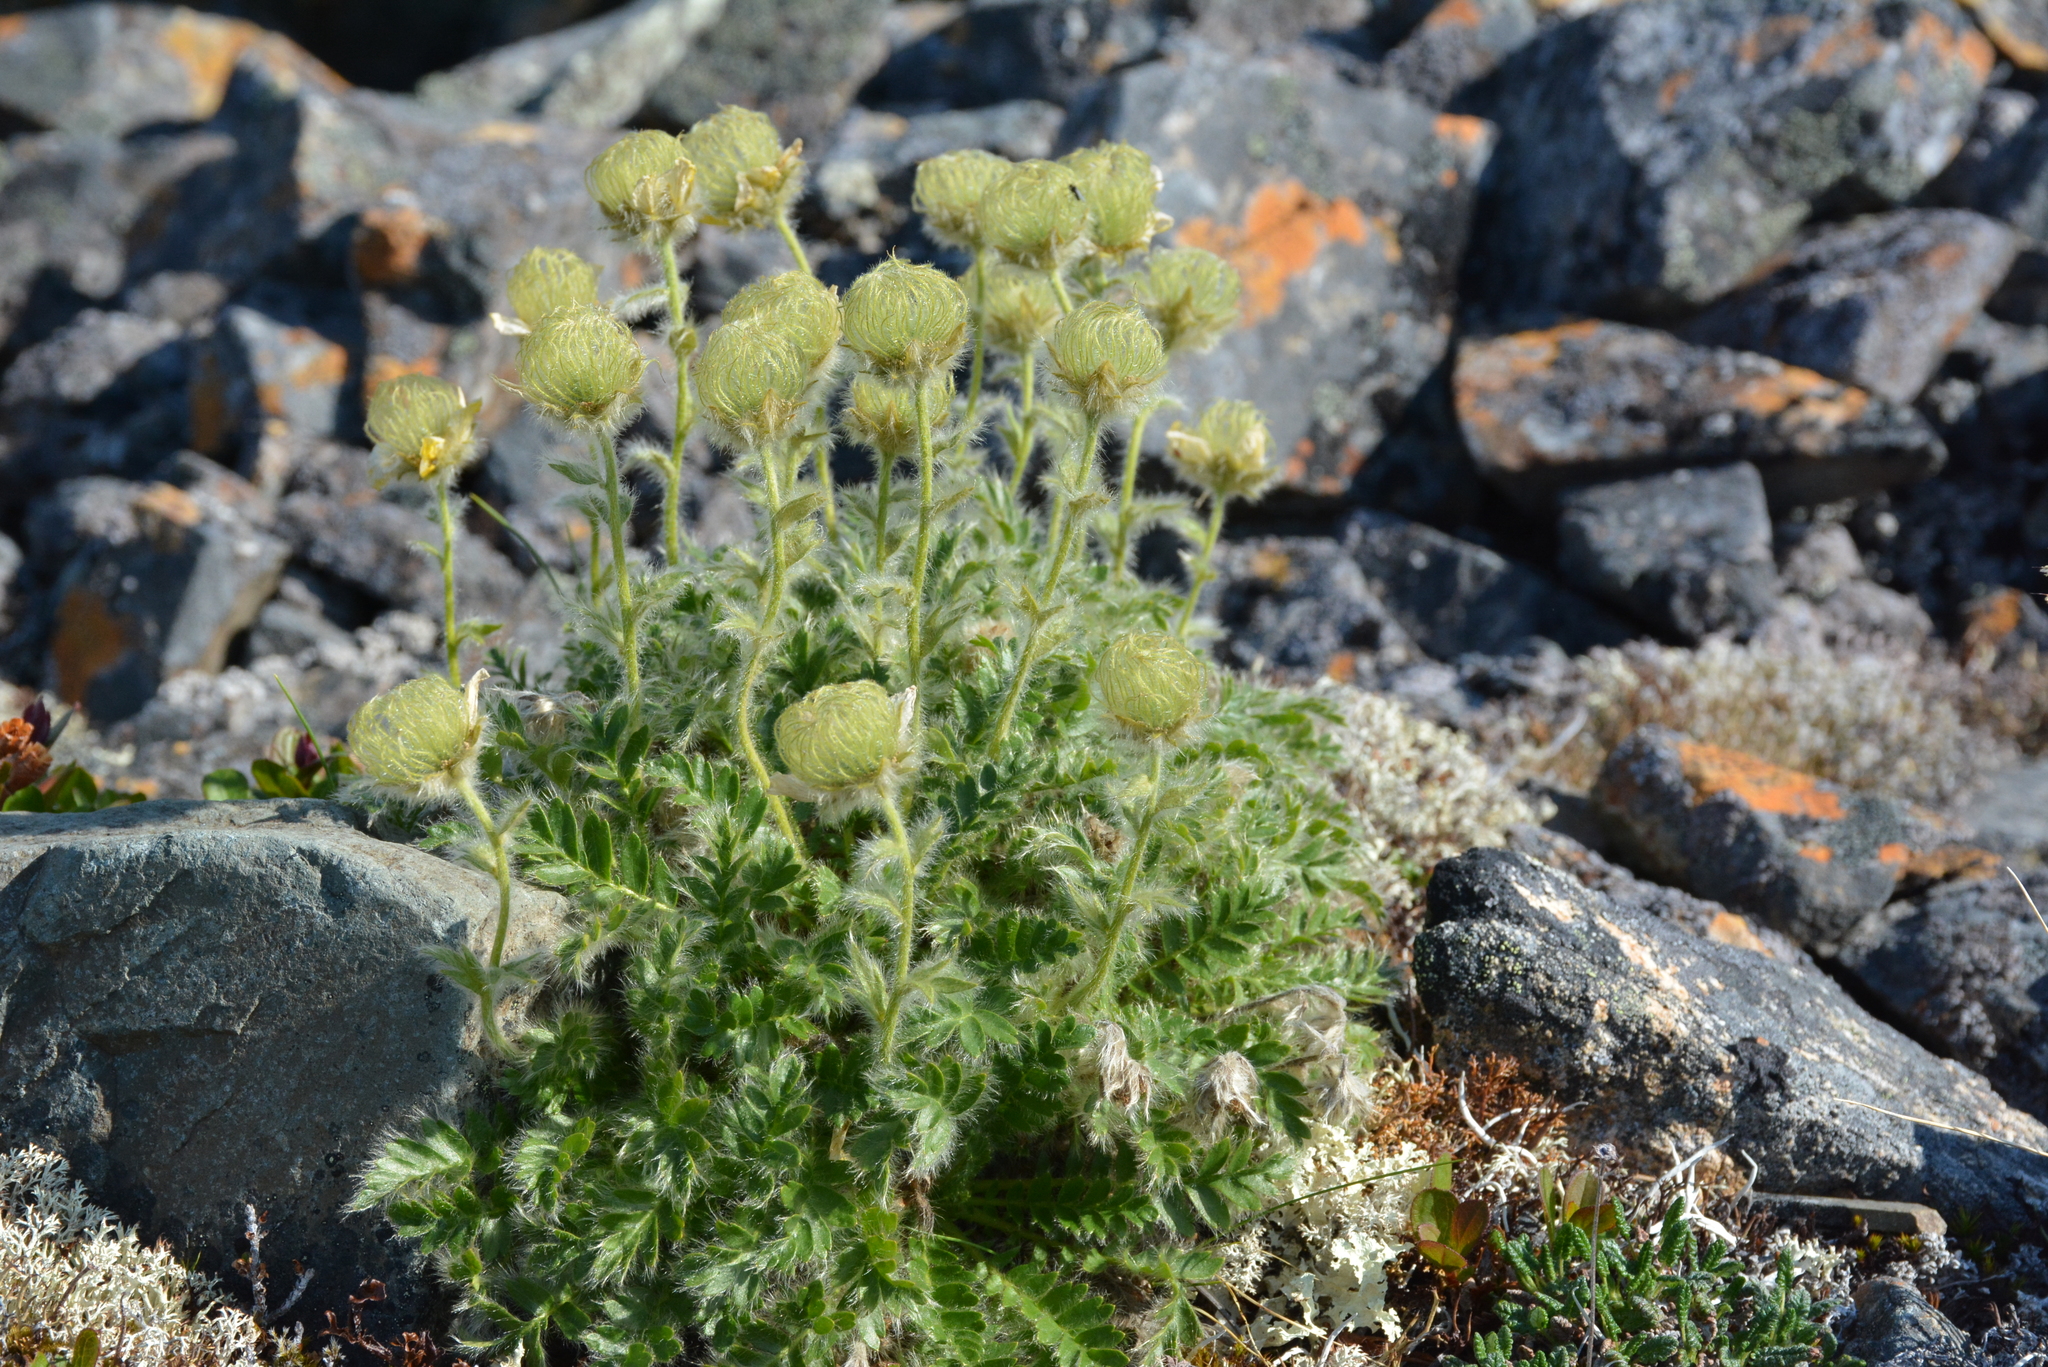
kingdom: Plantae
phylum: Tracheophyta
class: Magnoliopsida
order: Rosales
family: Rosaceae
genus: Geum
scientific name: Geum glaciale
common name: Glacier avens
